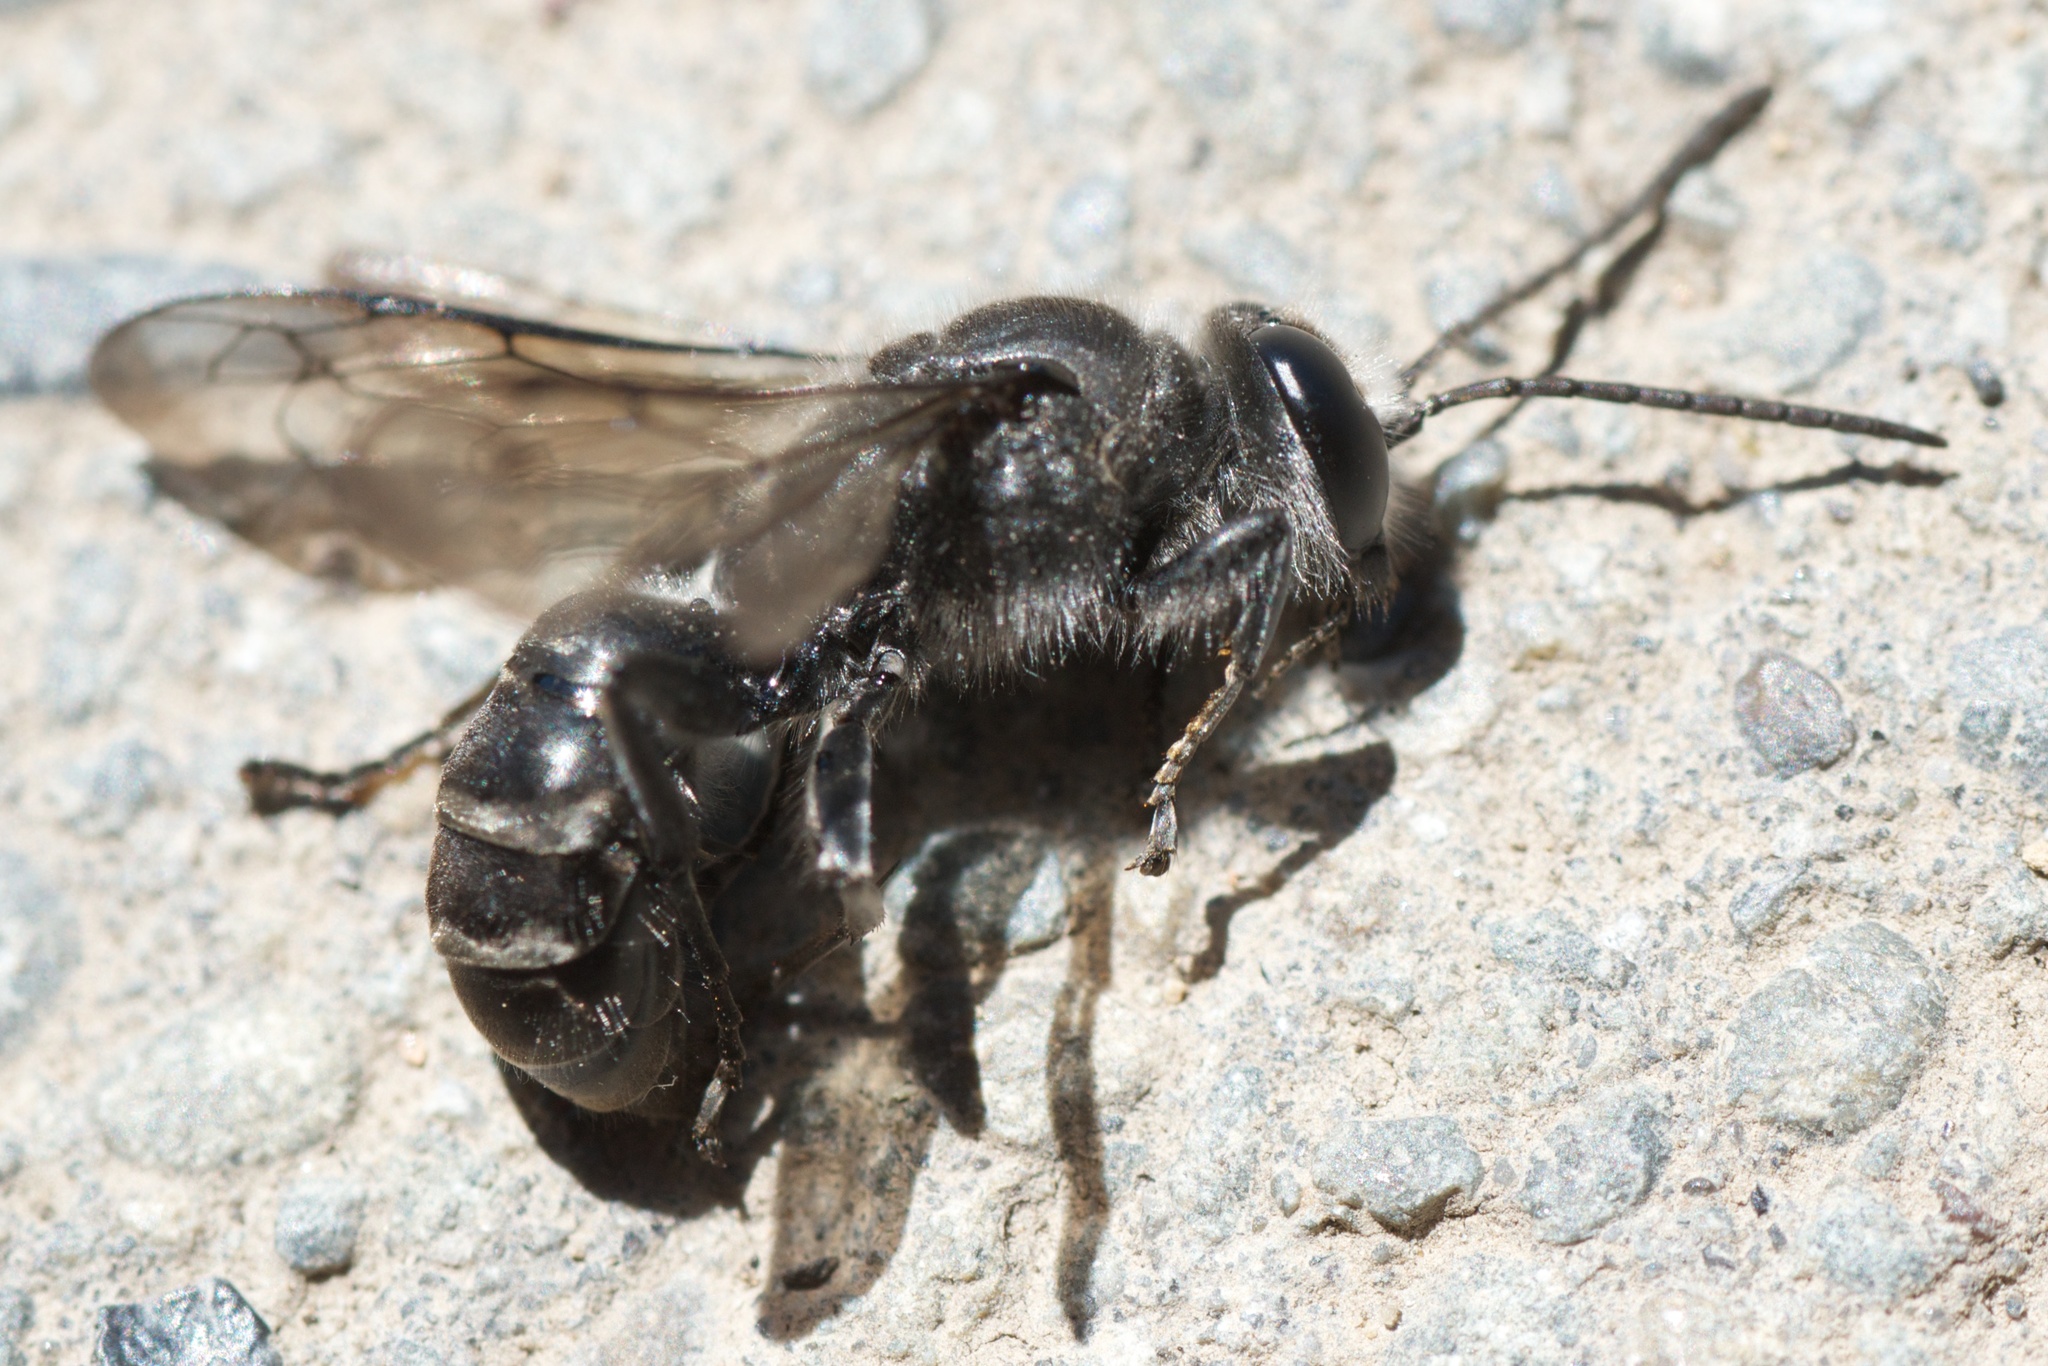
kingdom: Animalia
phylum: Arthropoda
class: Insecta
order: Hymenoptera
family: Crabronidae
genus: Pison
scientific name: Pison spinolae
